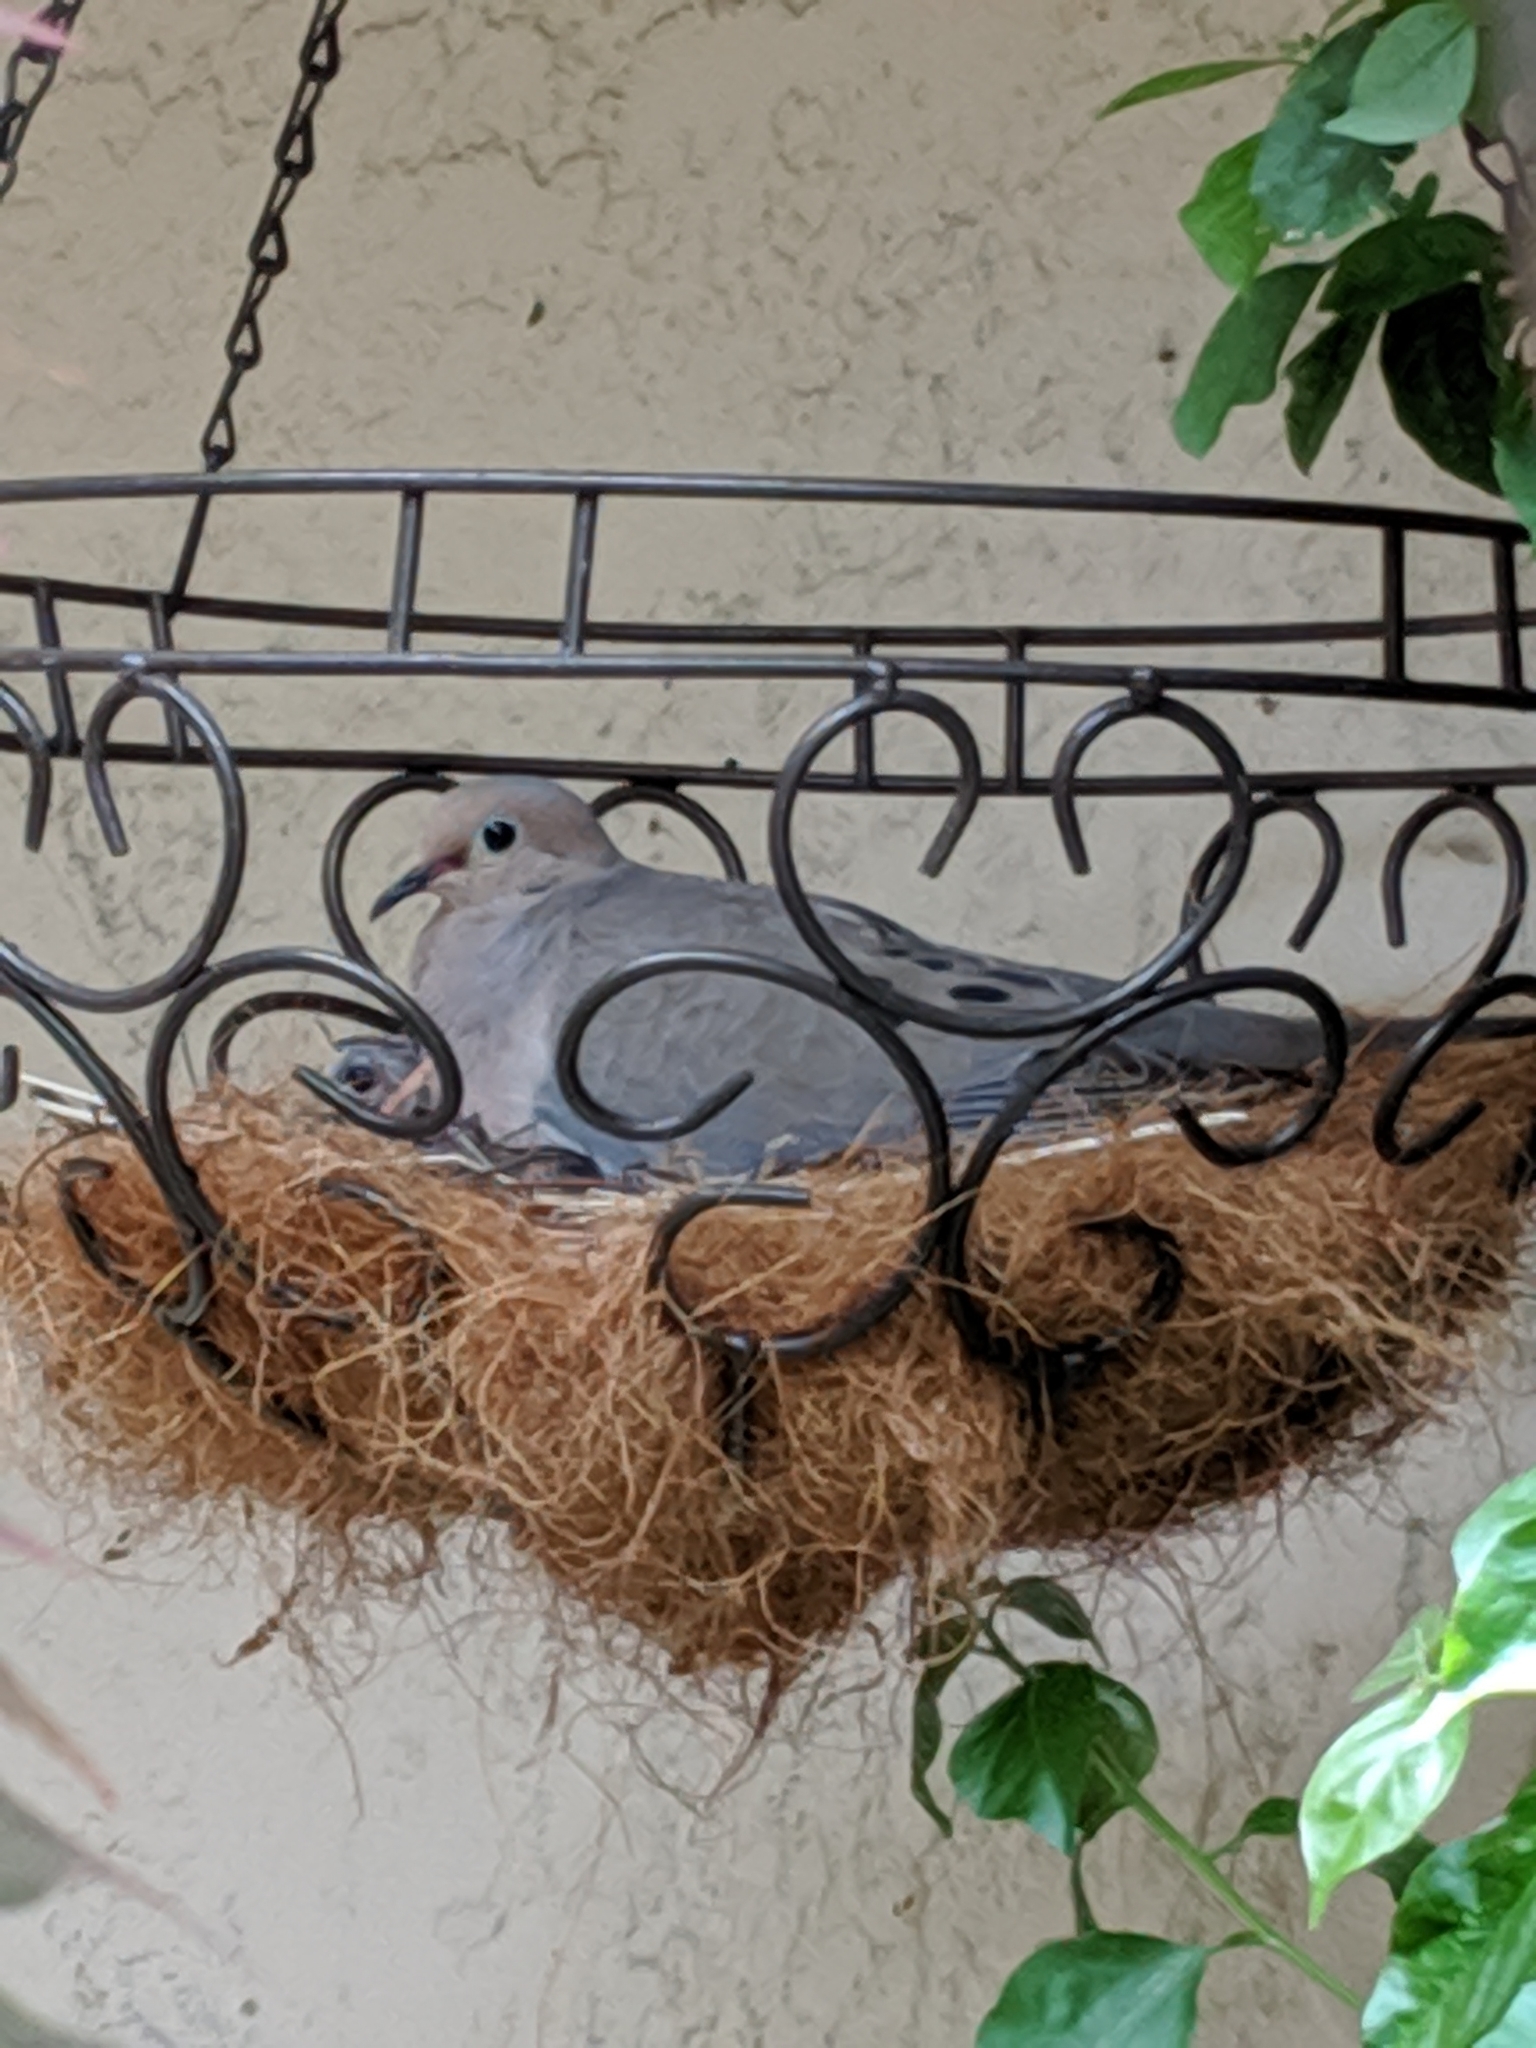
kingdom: Animalia
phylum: Chordata
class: Aves
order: Columbiformes
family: Columbidae
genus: Zenaida
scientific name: Zenaida macroura
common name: Mourning dove
